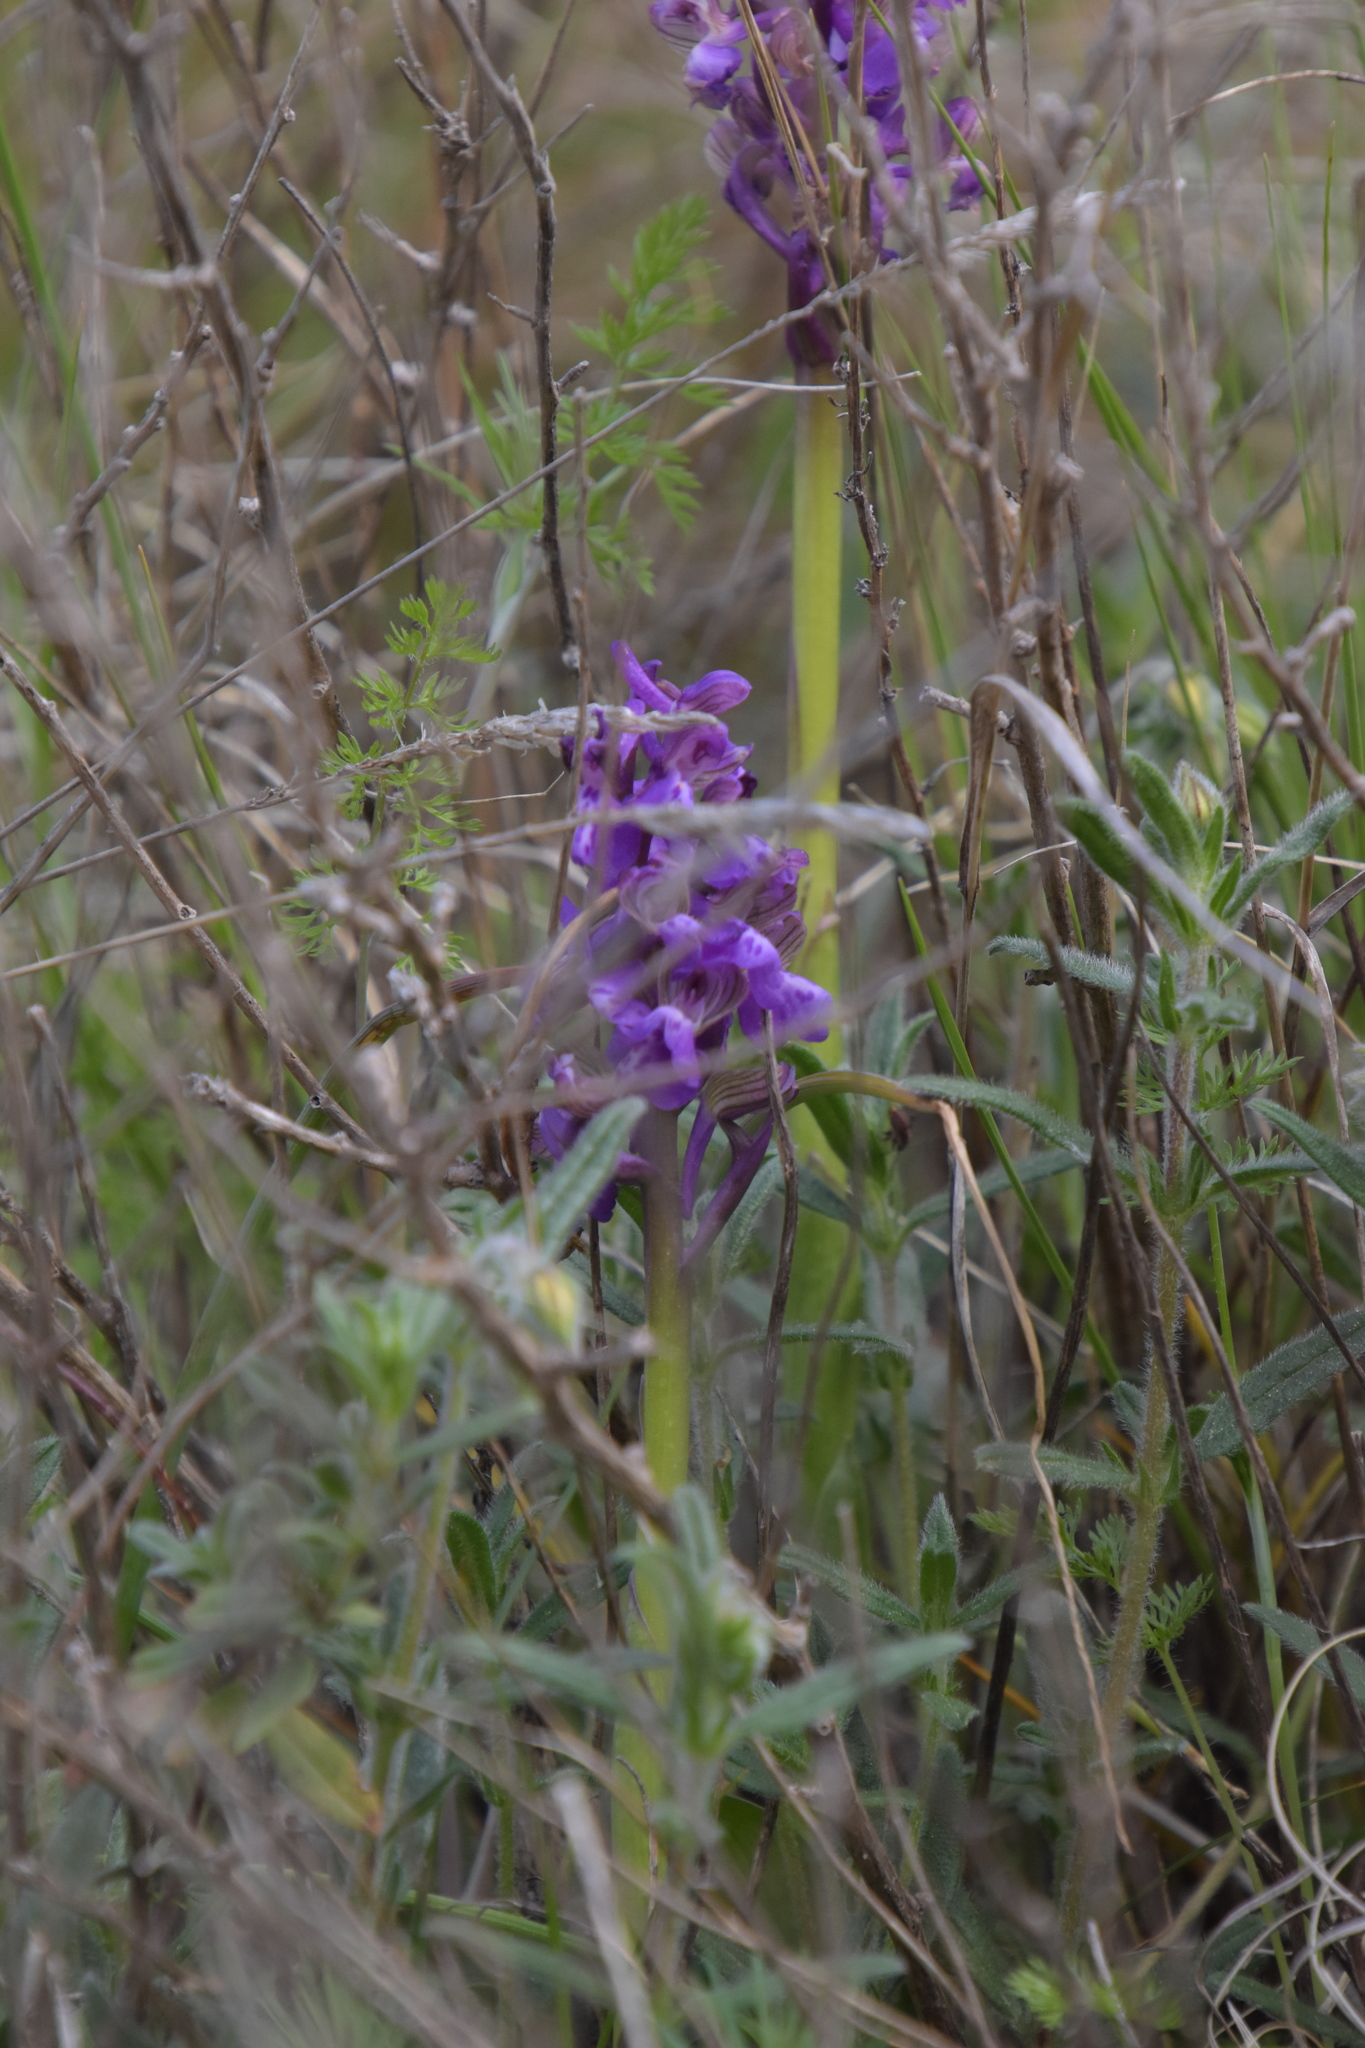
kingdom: Plantae
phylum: Tracheophyta
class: Liliopsida
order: Asparagales
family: Orchidaceae
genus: Anacamptis
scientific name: Anacamptis morio
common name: Green-winged orchid
